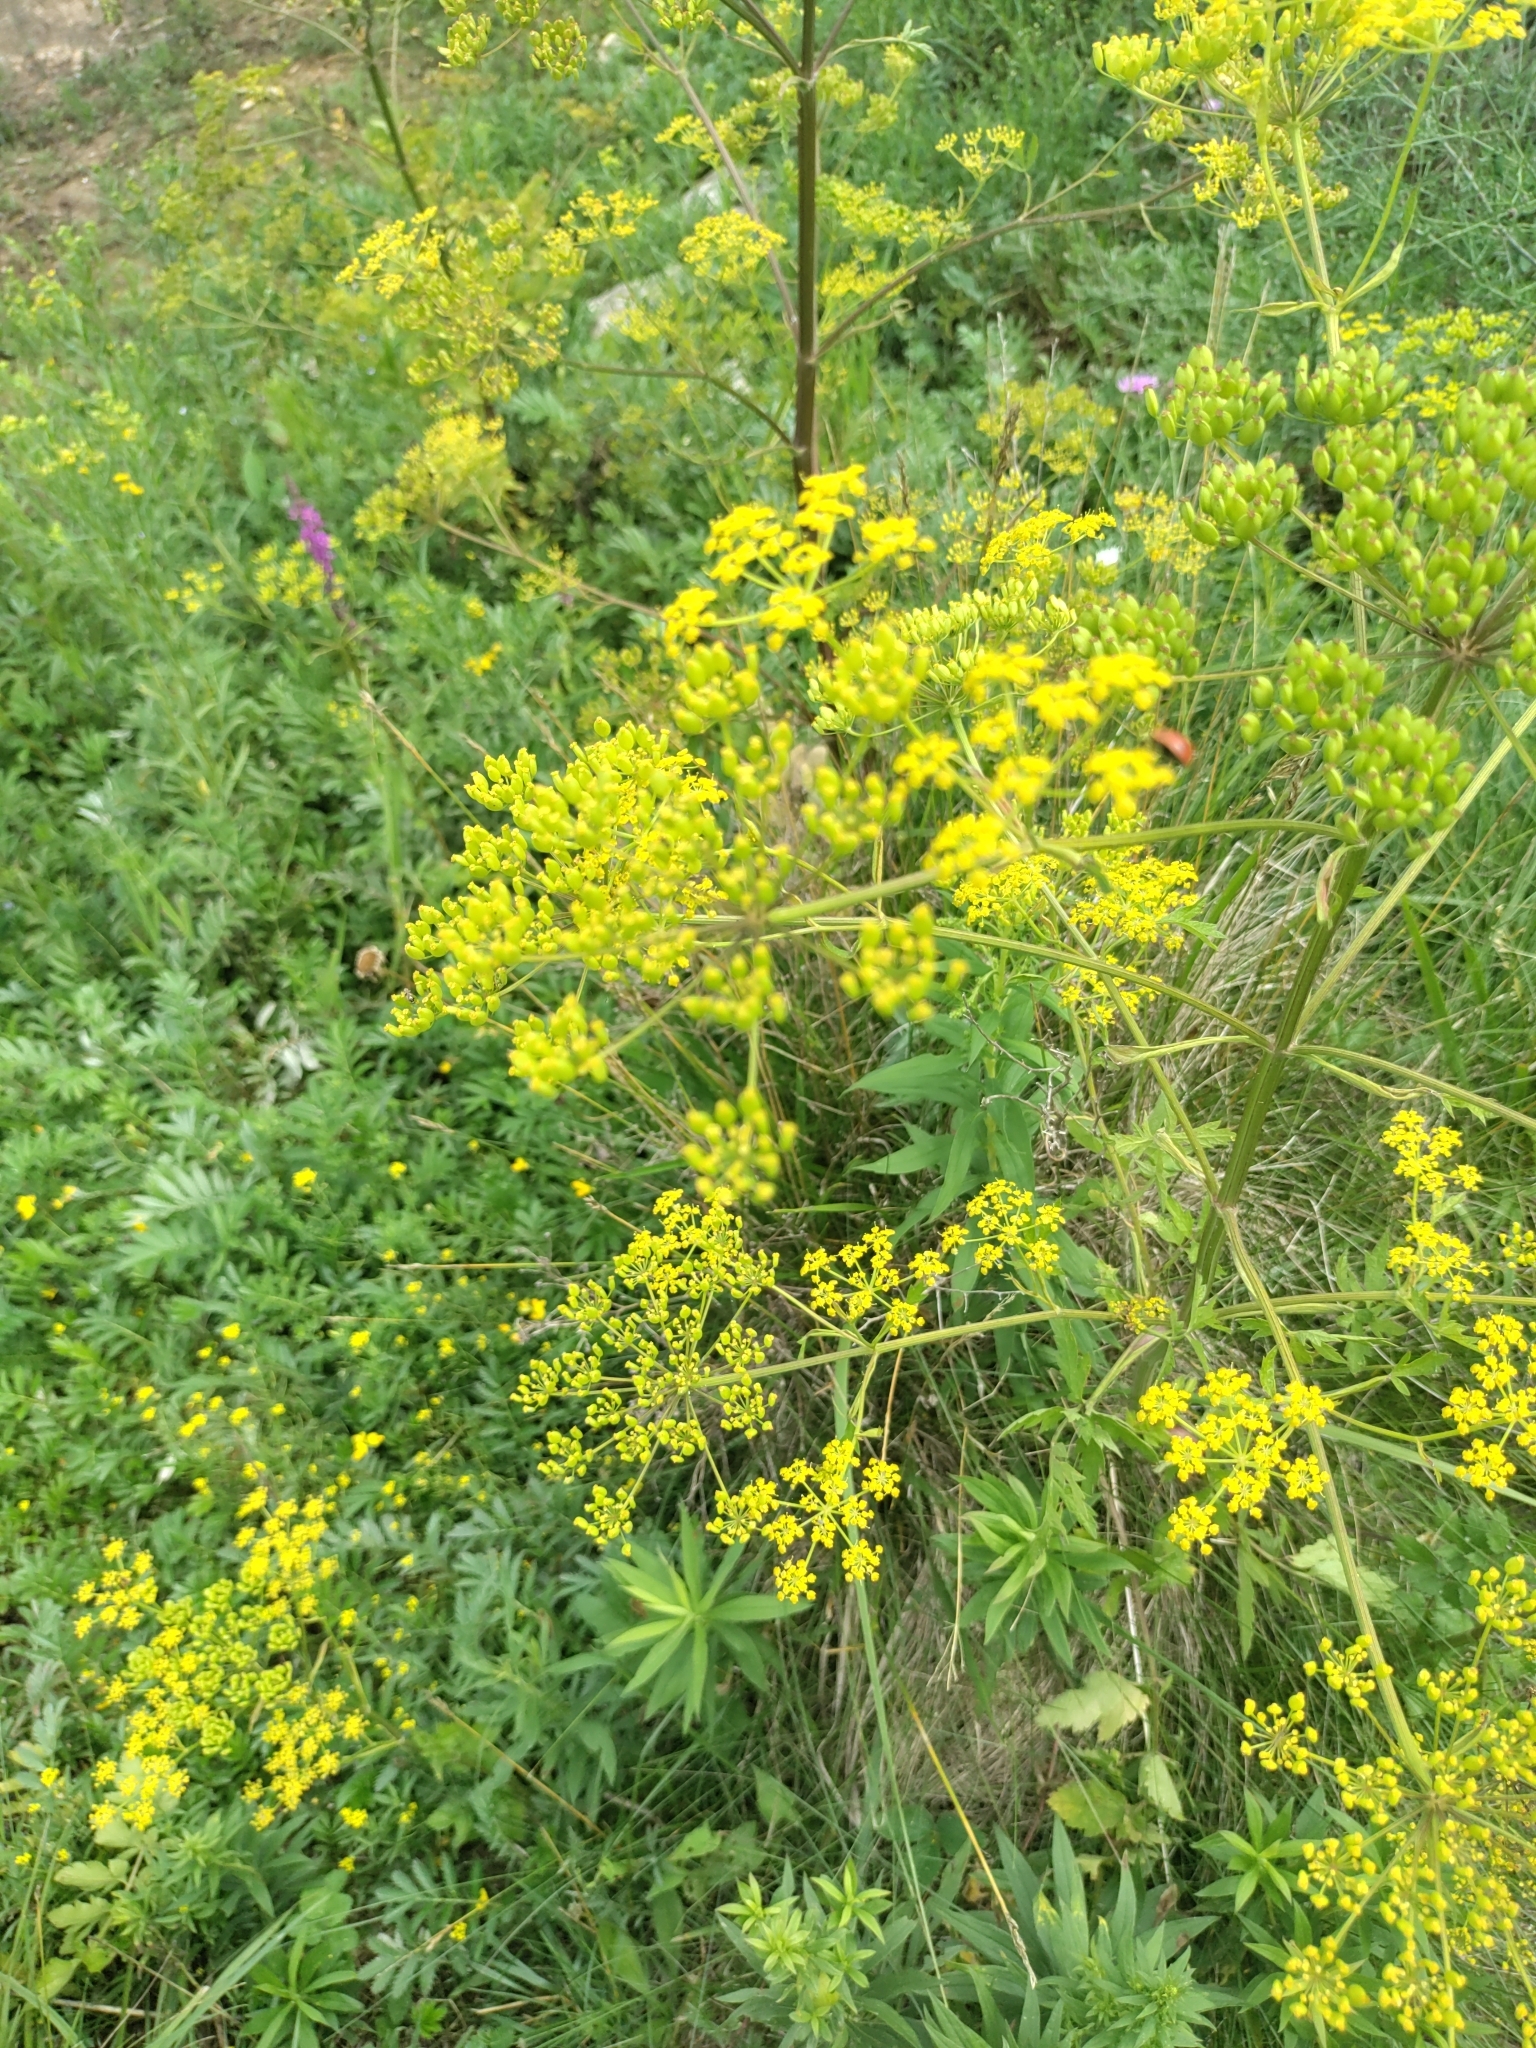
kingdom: Plantae
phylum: Tracheophyta
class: Magnoliopsida
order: Apiales
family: Apiaceae
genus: Pastinaca
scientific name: Pastinaca sativa
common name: Wild parsnip
